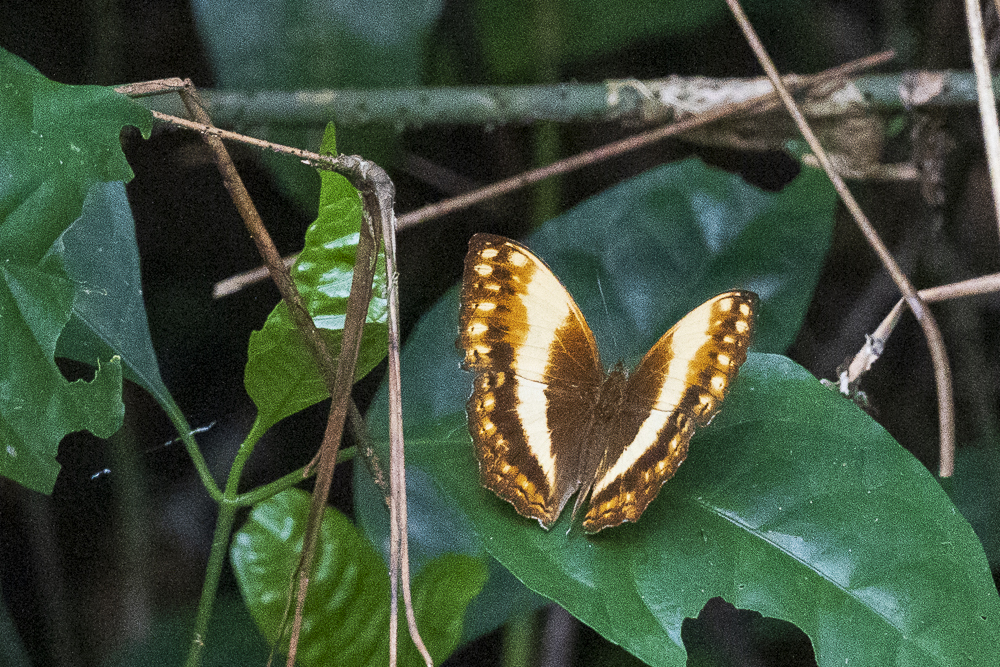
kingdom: Animalia
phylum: Arthropoda
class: Insecta
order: Lepidoptera
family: Nymphalidae
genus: Cymothoe
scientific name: Cymothoe
